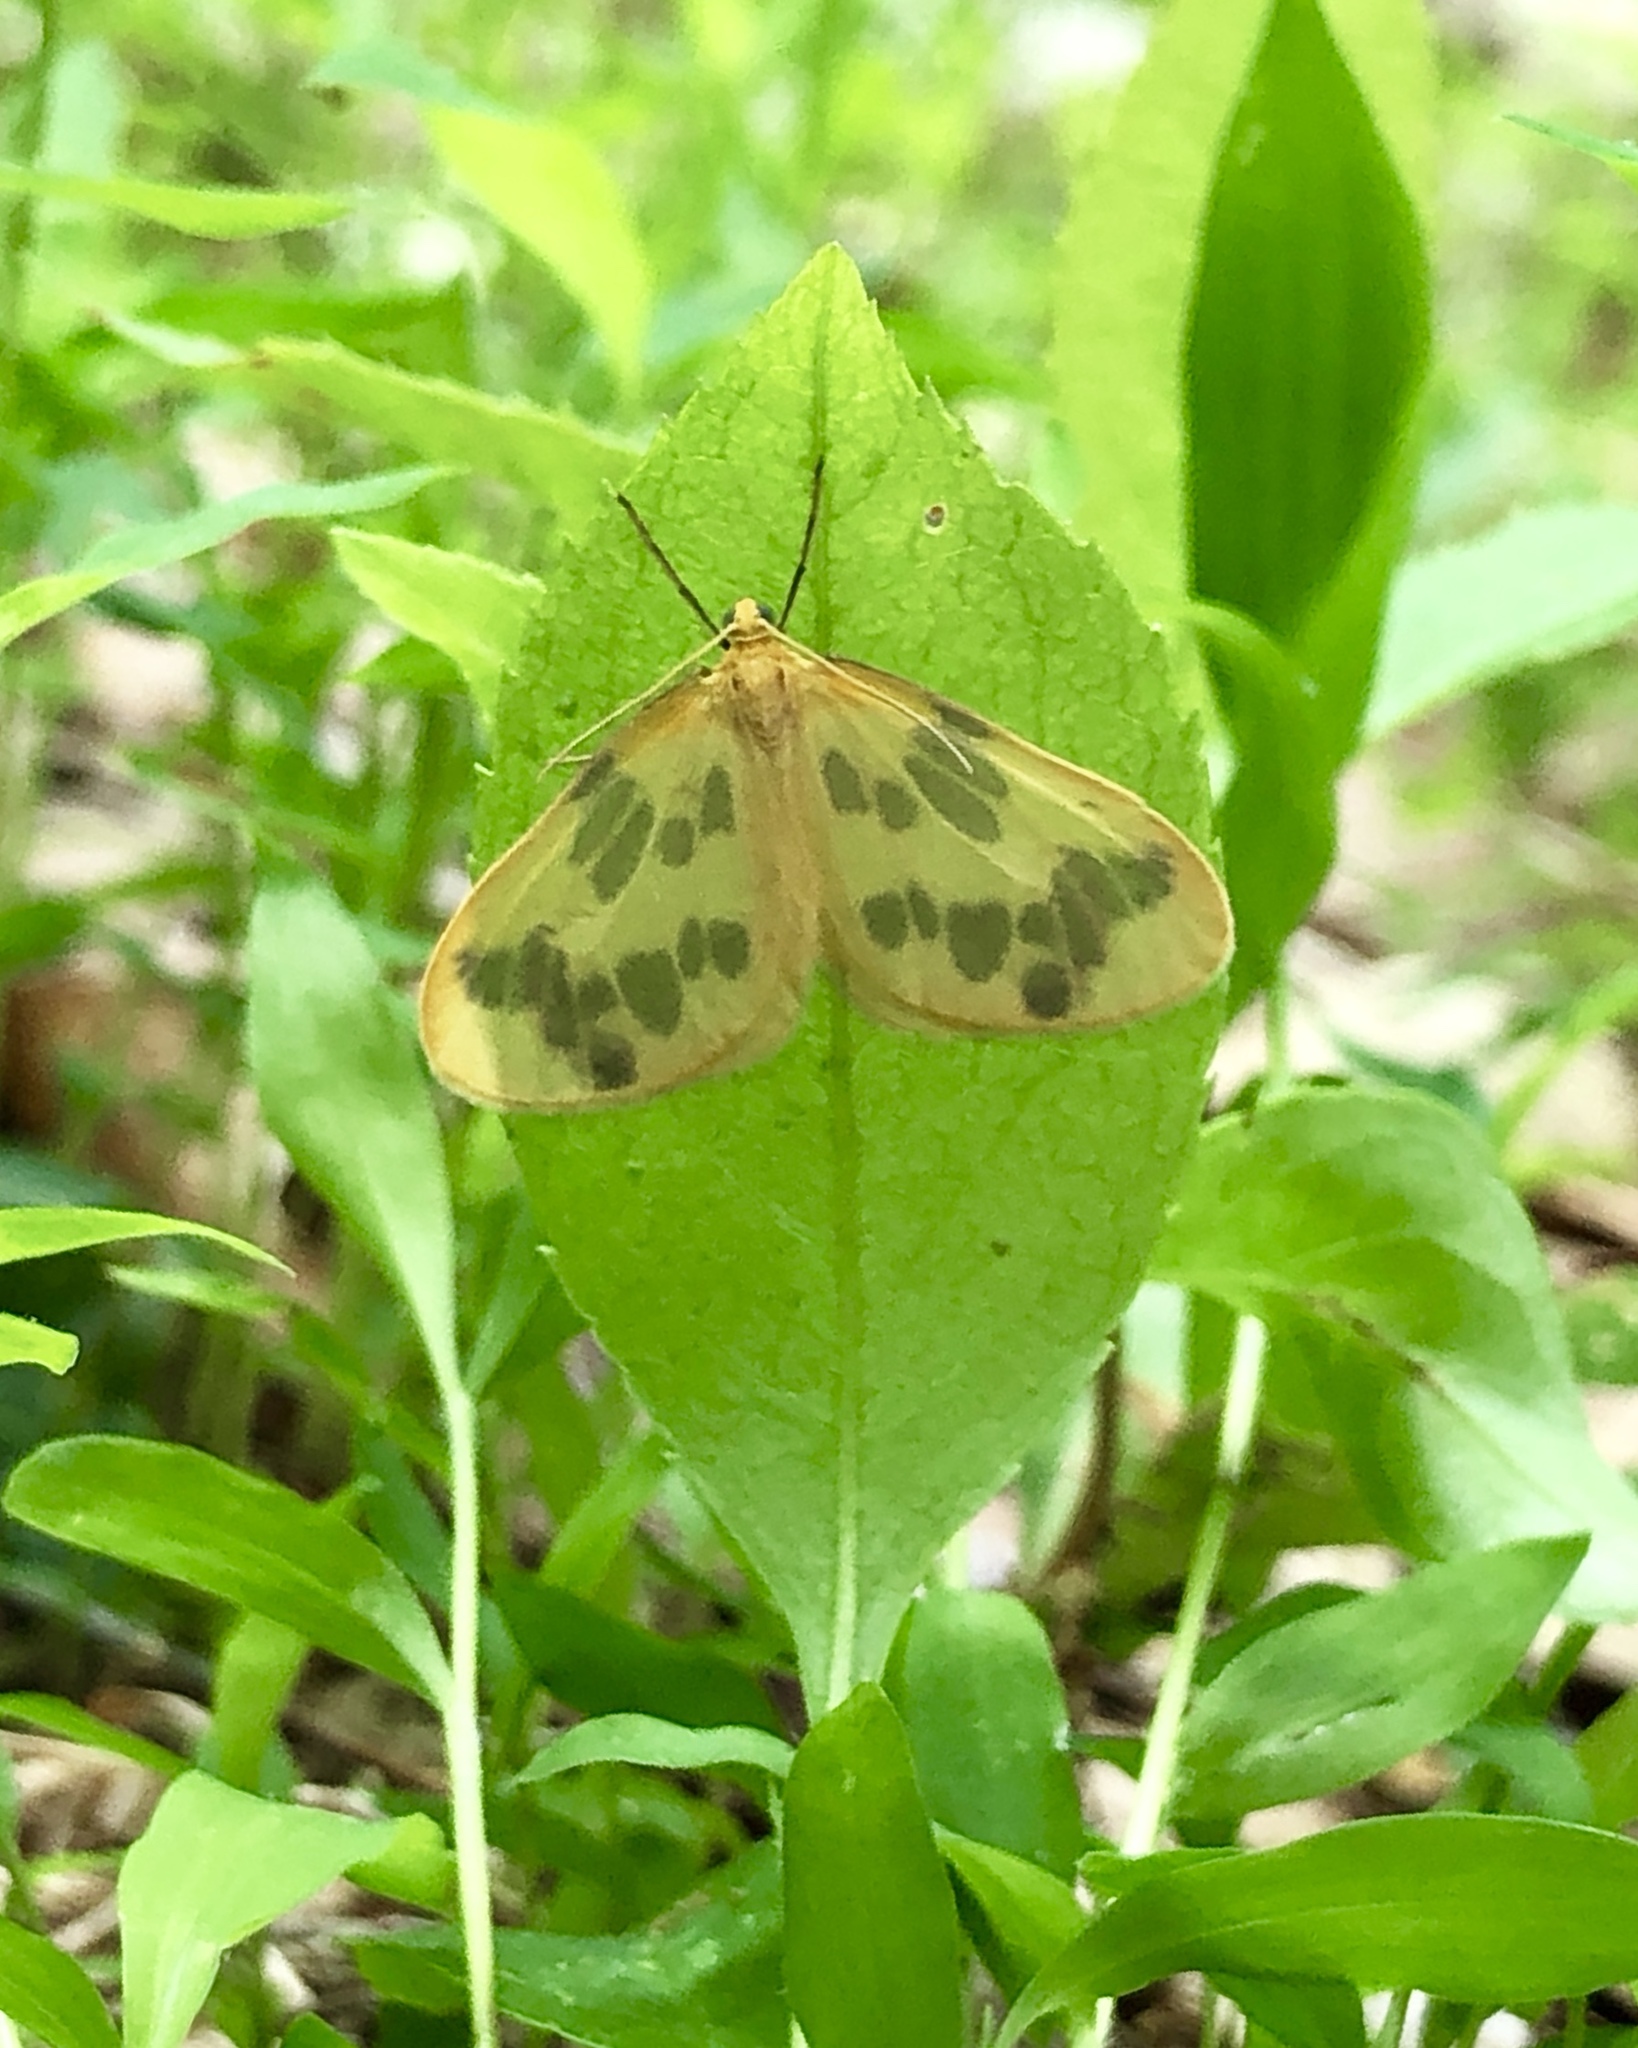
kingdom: Animalia
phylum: Arthropoda
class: Insecta
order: Lepidoptera
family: Geometridae
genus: Eubaphe
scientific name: Eubaphe mendica
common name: Beggar
